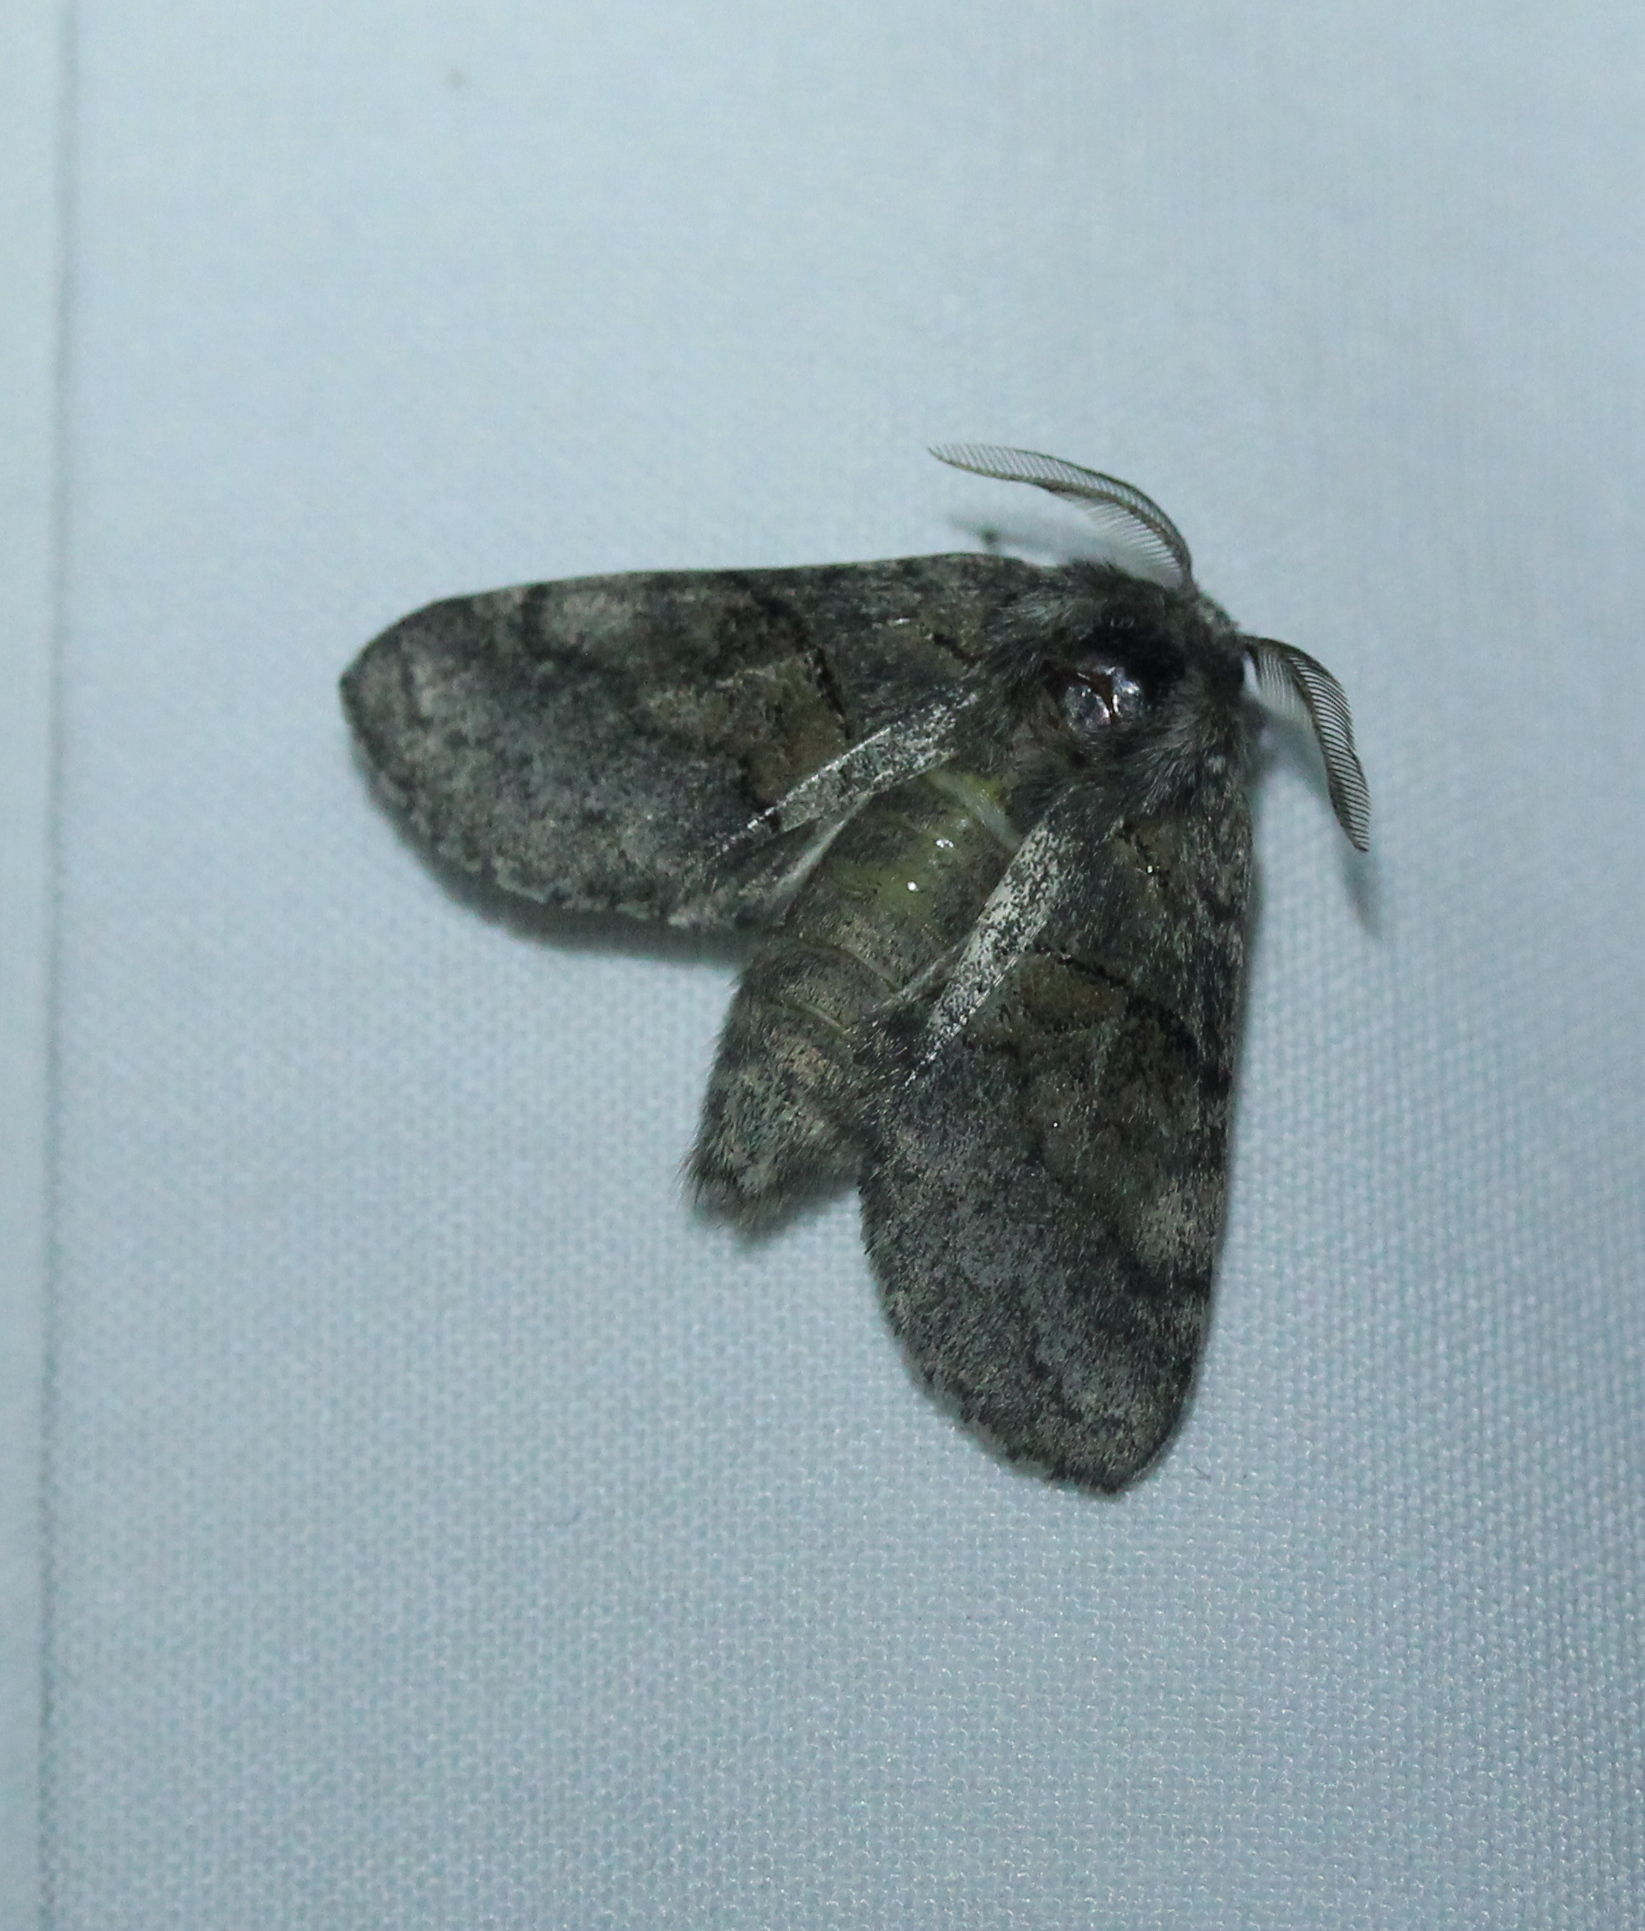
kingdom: Animalia
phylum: Arthropoda
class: Insecta
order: Lepidoptera
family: Notodontidae
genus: Gluphisia
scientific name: Gluphisia septentrionis
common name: Common gluphisia
